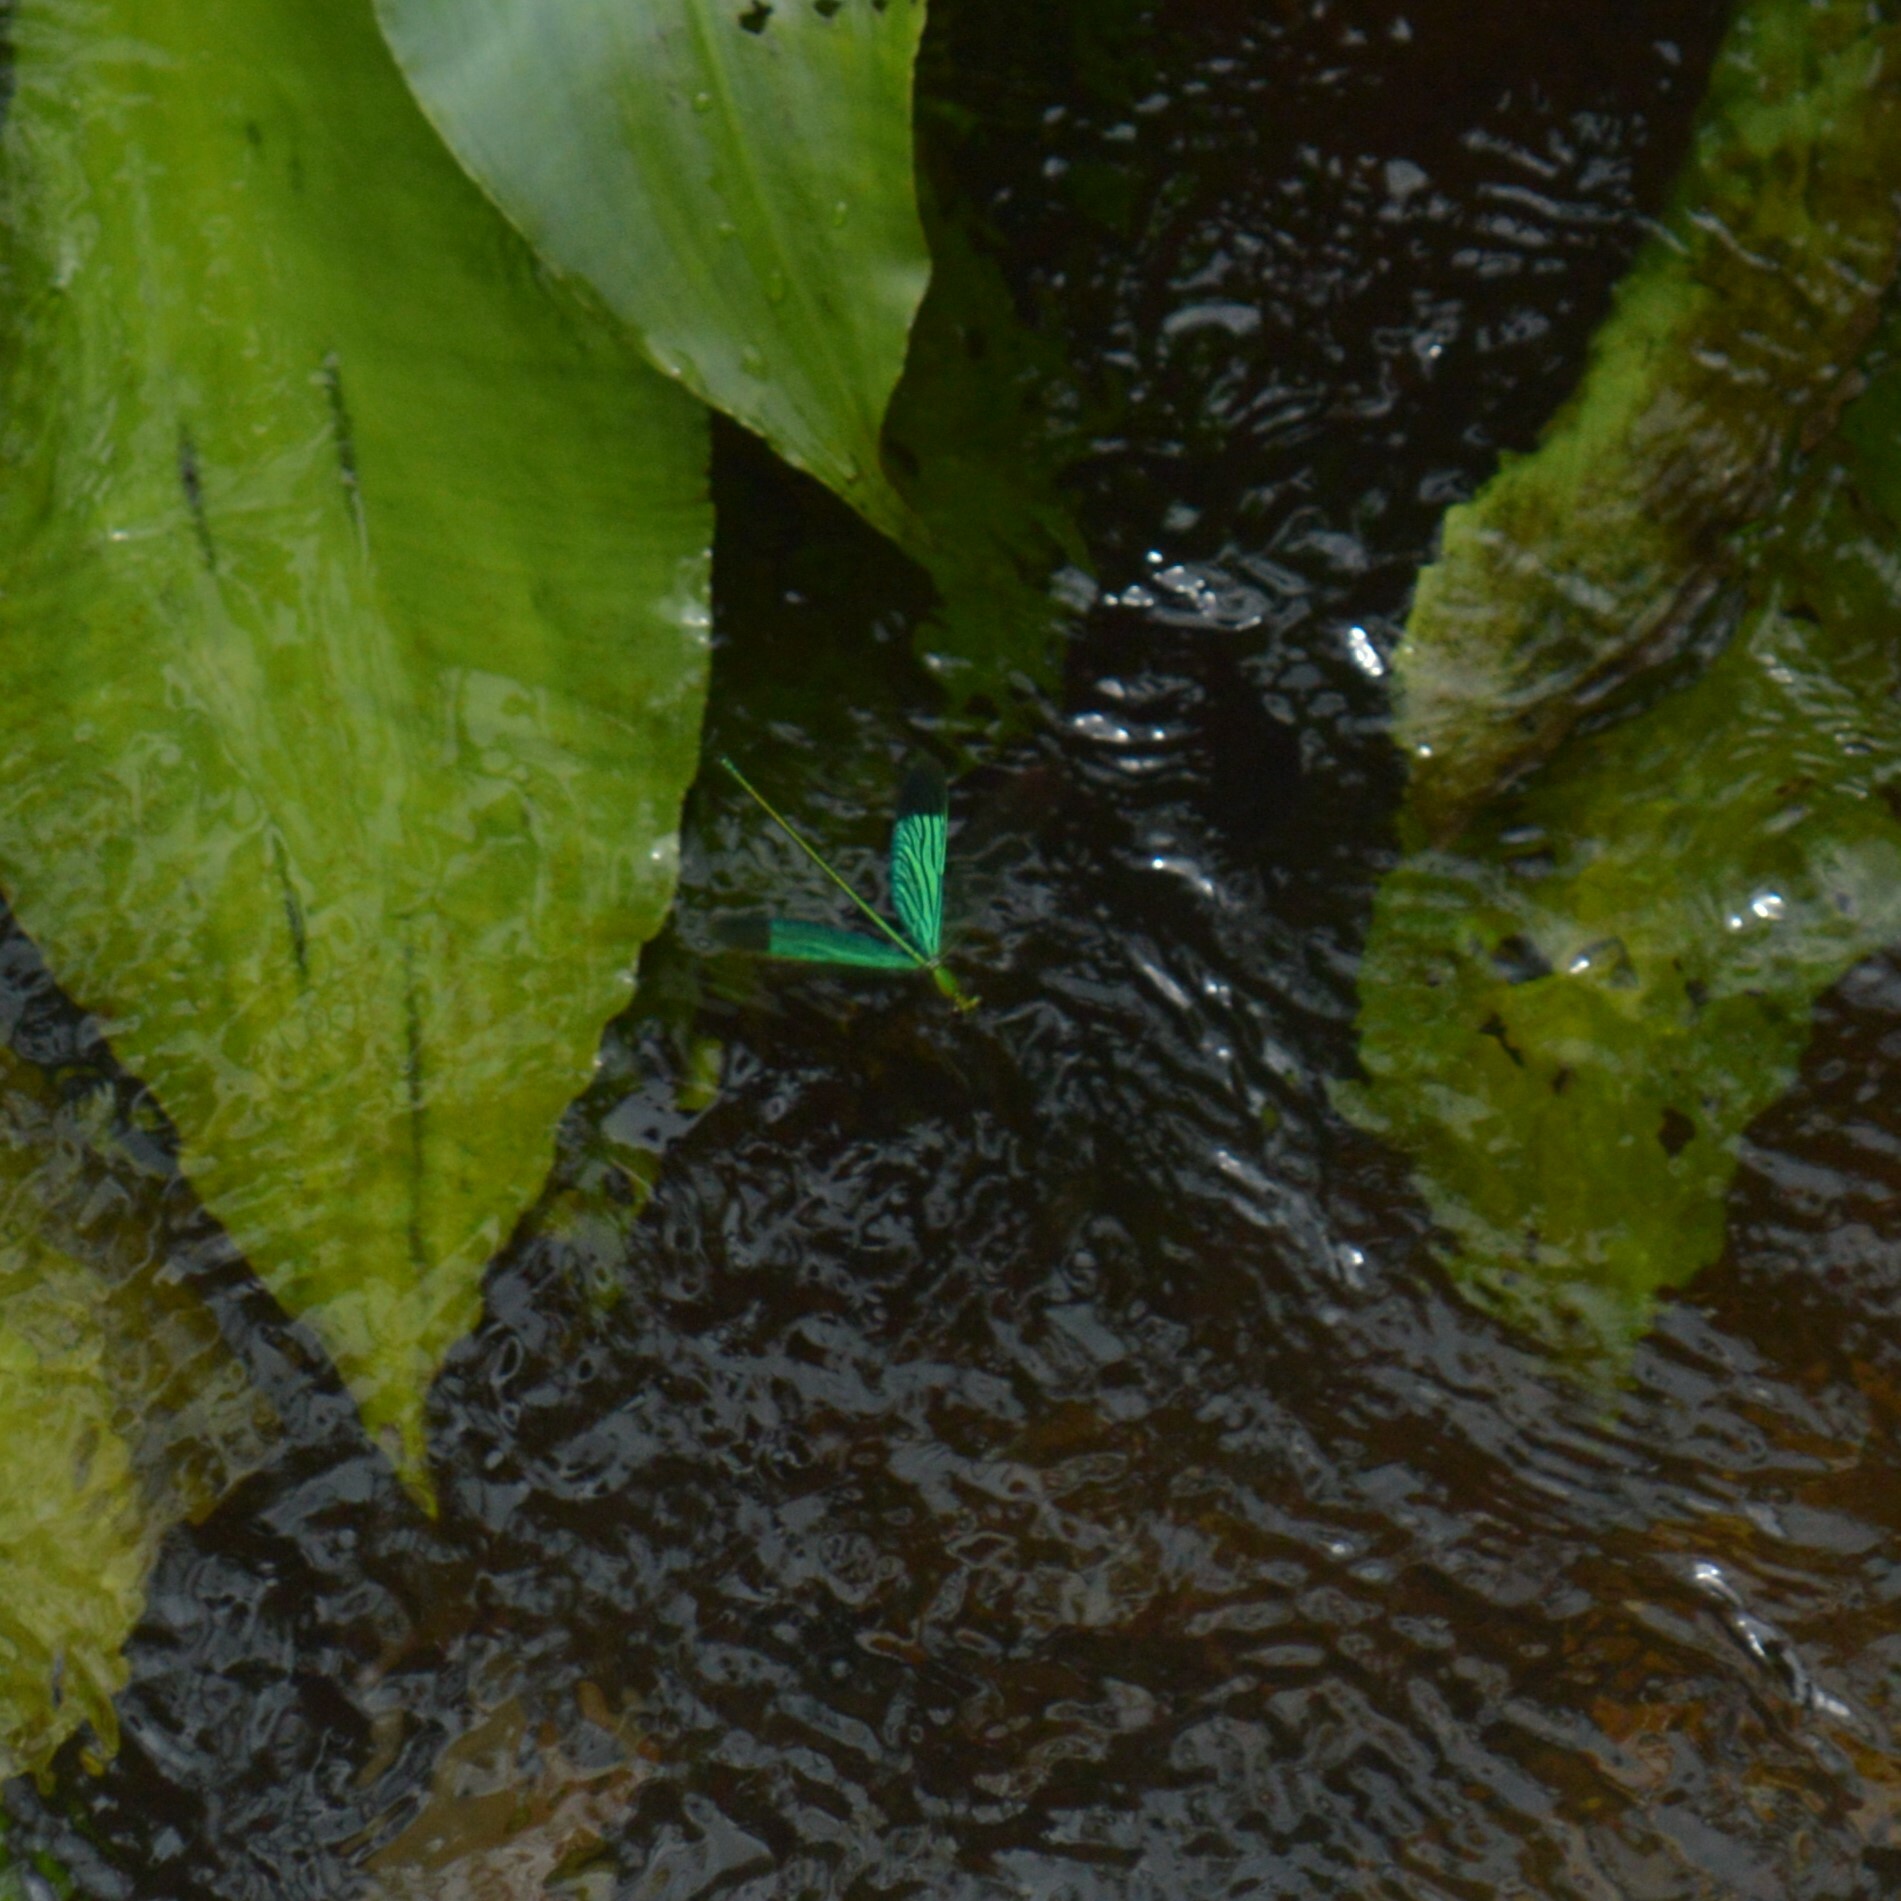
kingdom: Animalia
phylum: Arthropoda
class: Insecta
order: Odonata
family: Calopterygidae
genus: Neurobasis
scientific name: Neurobasis chinensis
